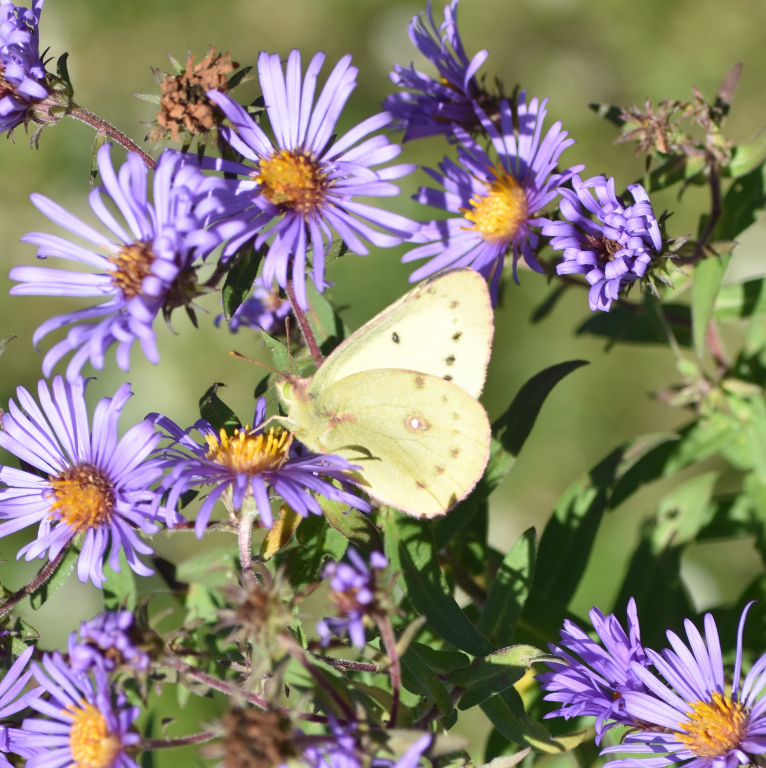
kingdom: Animalia
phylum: Arthropoda
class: Insecta
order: Lepidoptera
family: Pieridae
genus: Colias
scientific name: Colias philodice
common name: Clouded sulphur
